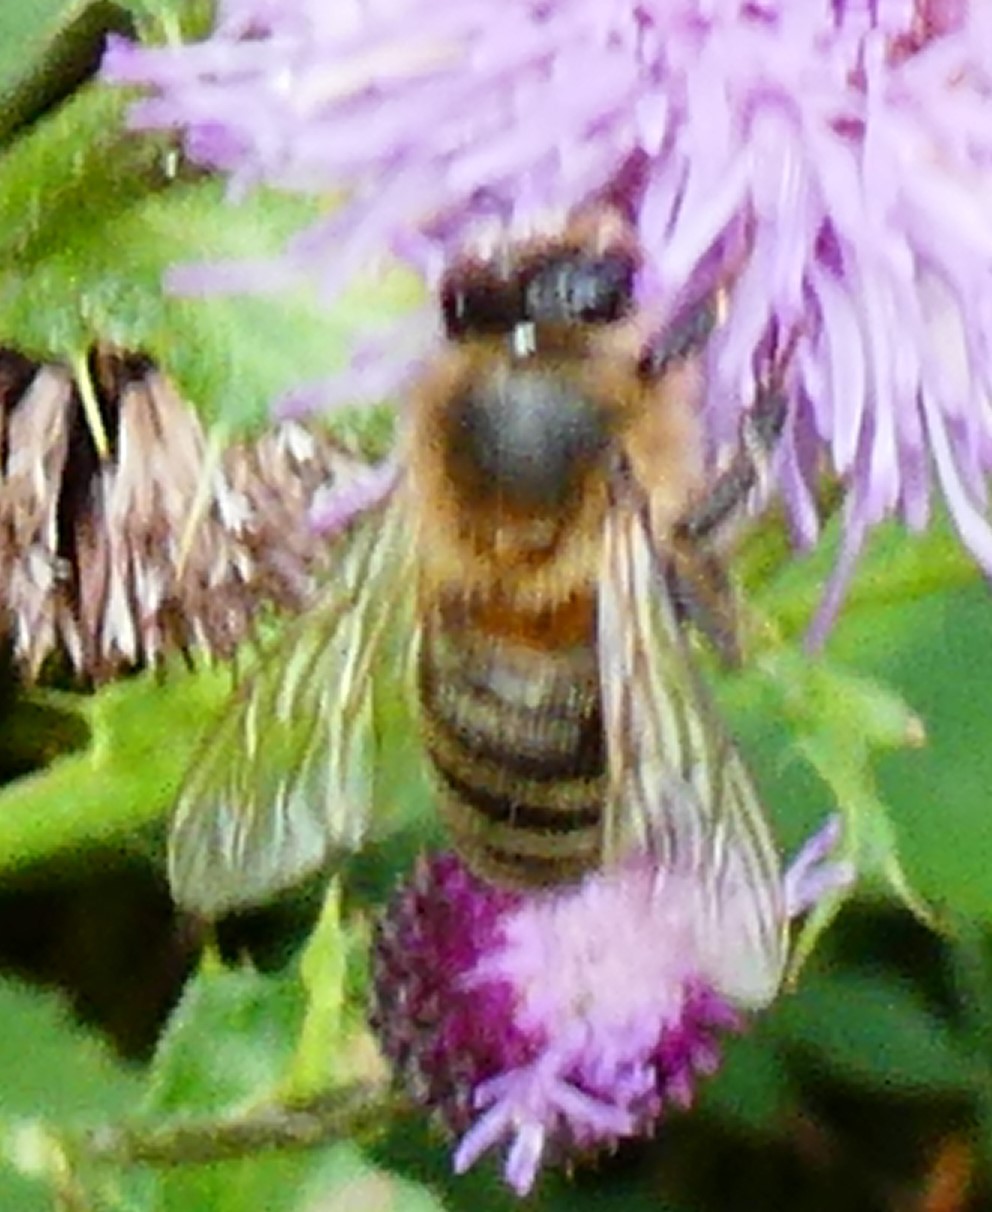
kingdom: Animalia
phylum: Arthropoda
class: Insecta
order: Hymenoptera
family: Apidae
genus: Apis
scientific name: Apis mellifera
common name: Honey bee
